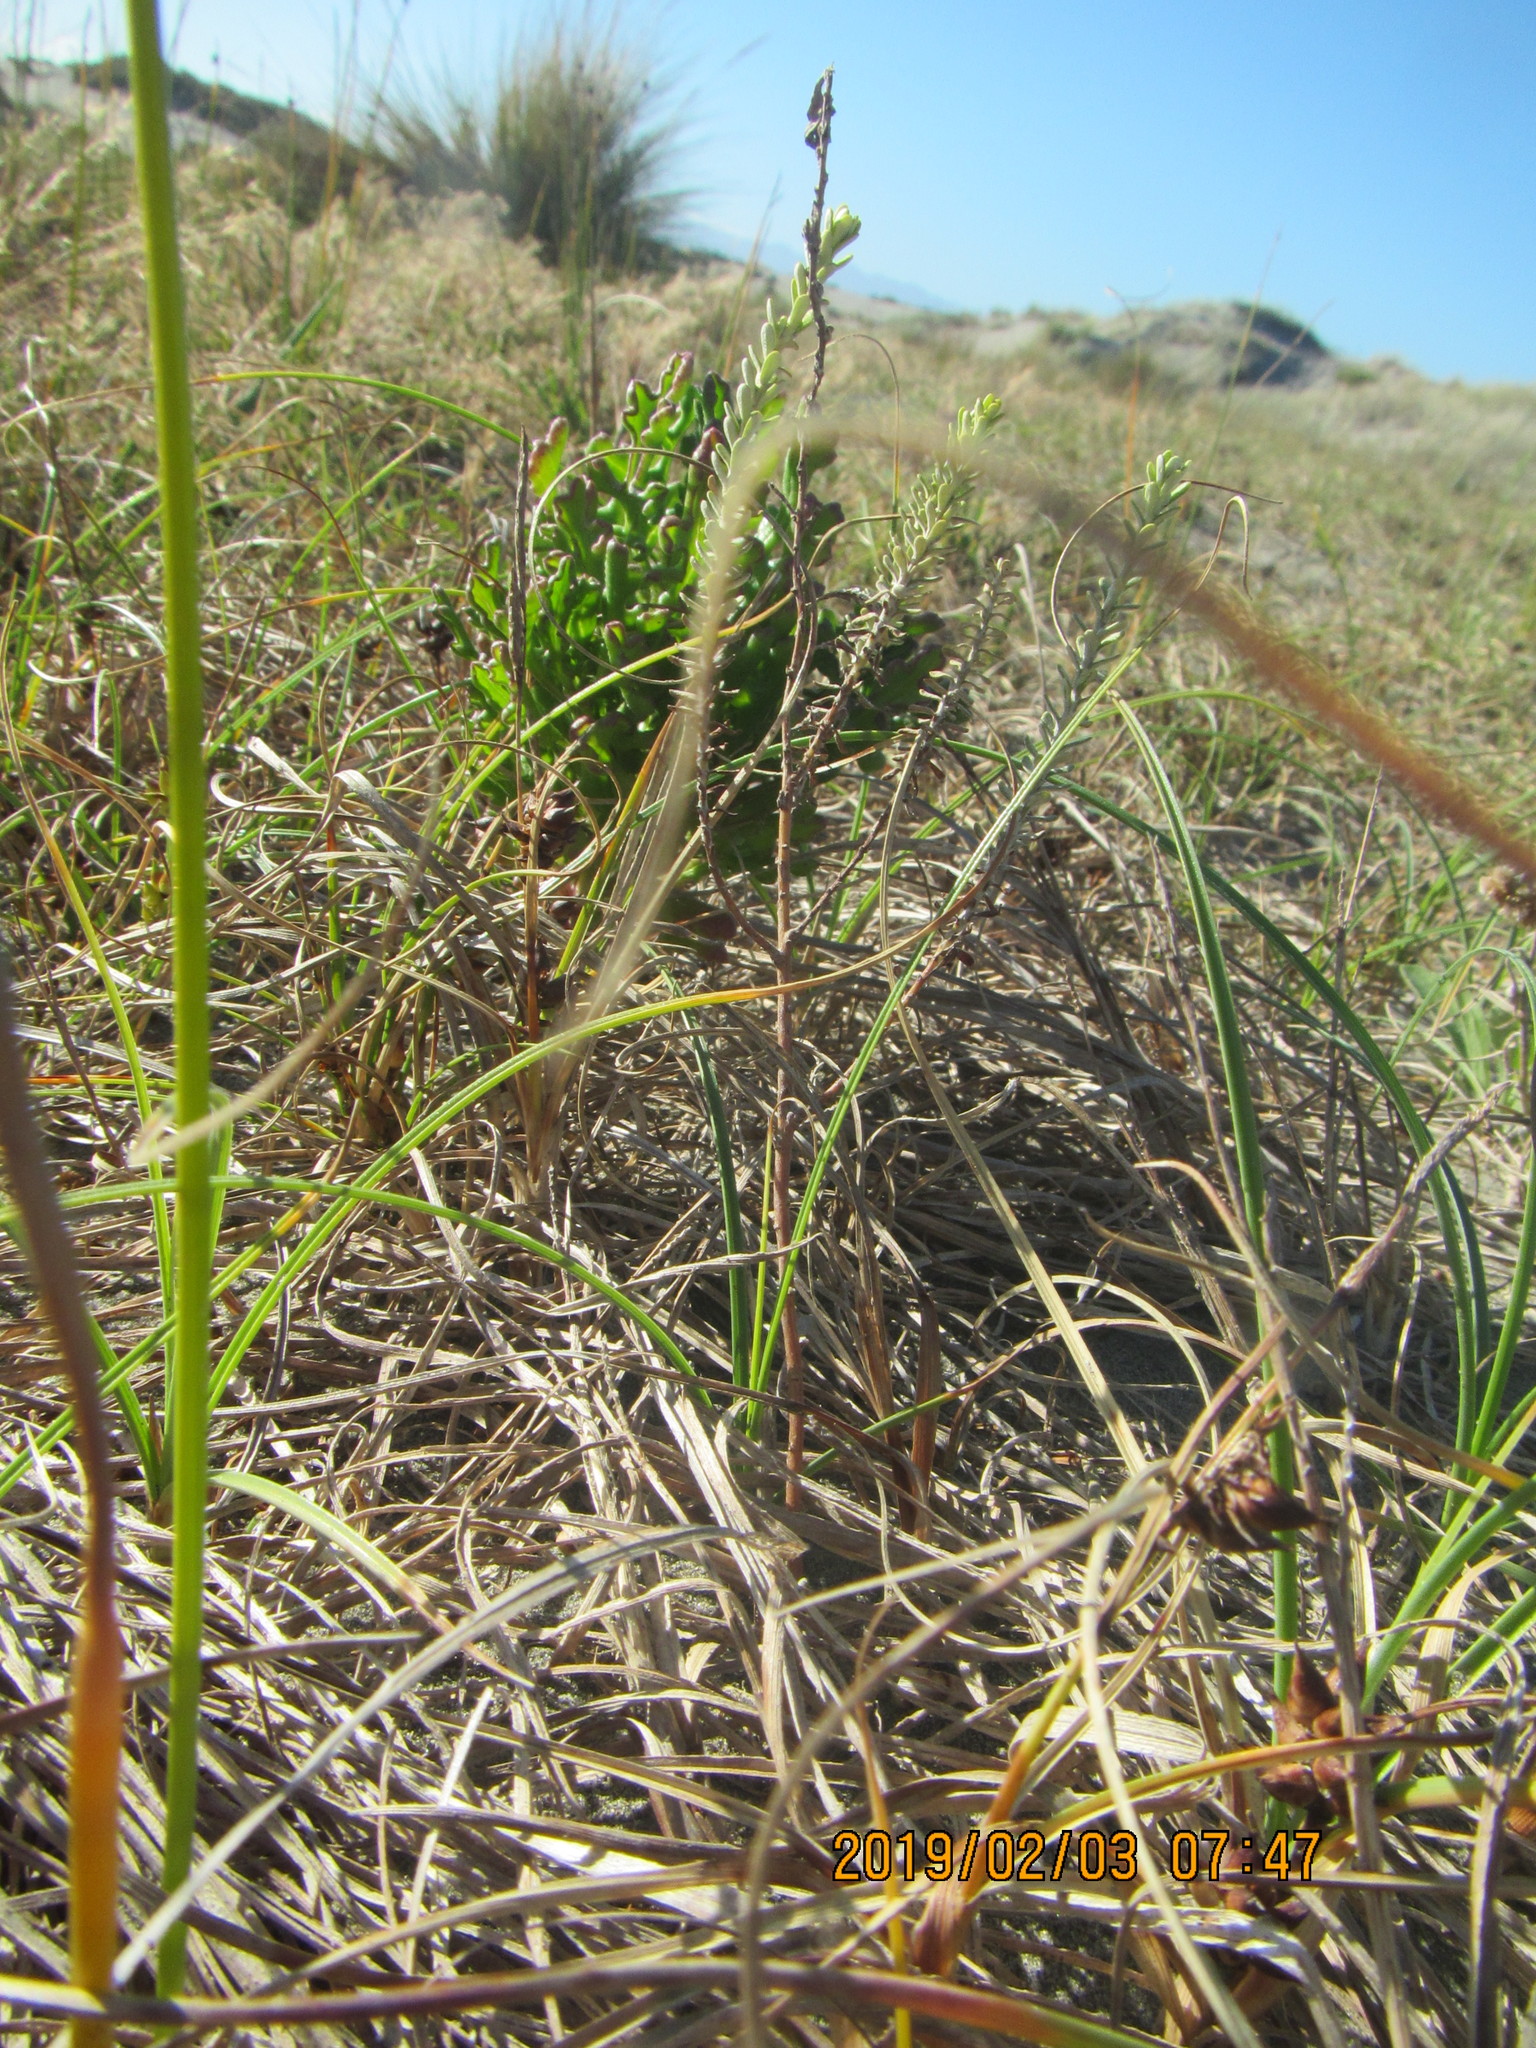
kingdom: Plantae
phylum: Tracheophyta
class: Magnoliopsida
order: Asterales
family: Asteraceae
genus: Ozothamnus
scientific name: Ozothamnus leptophyllus
